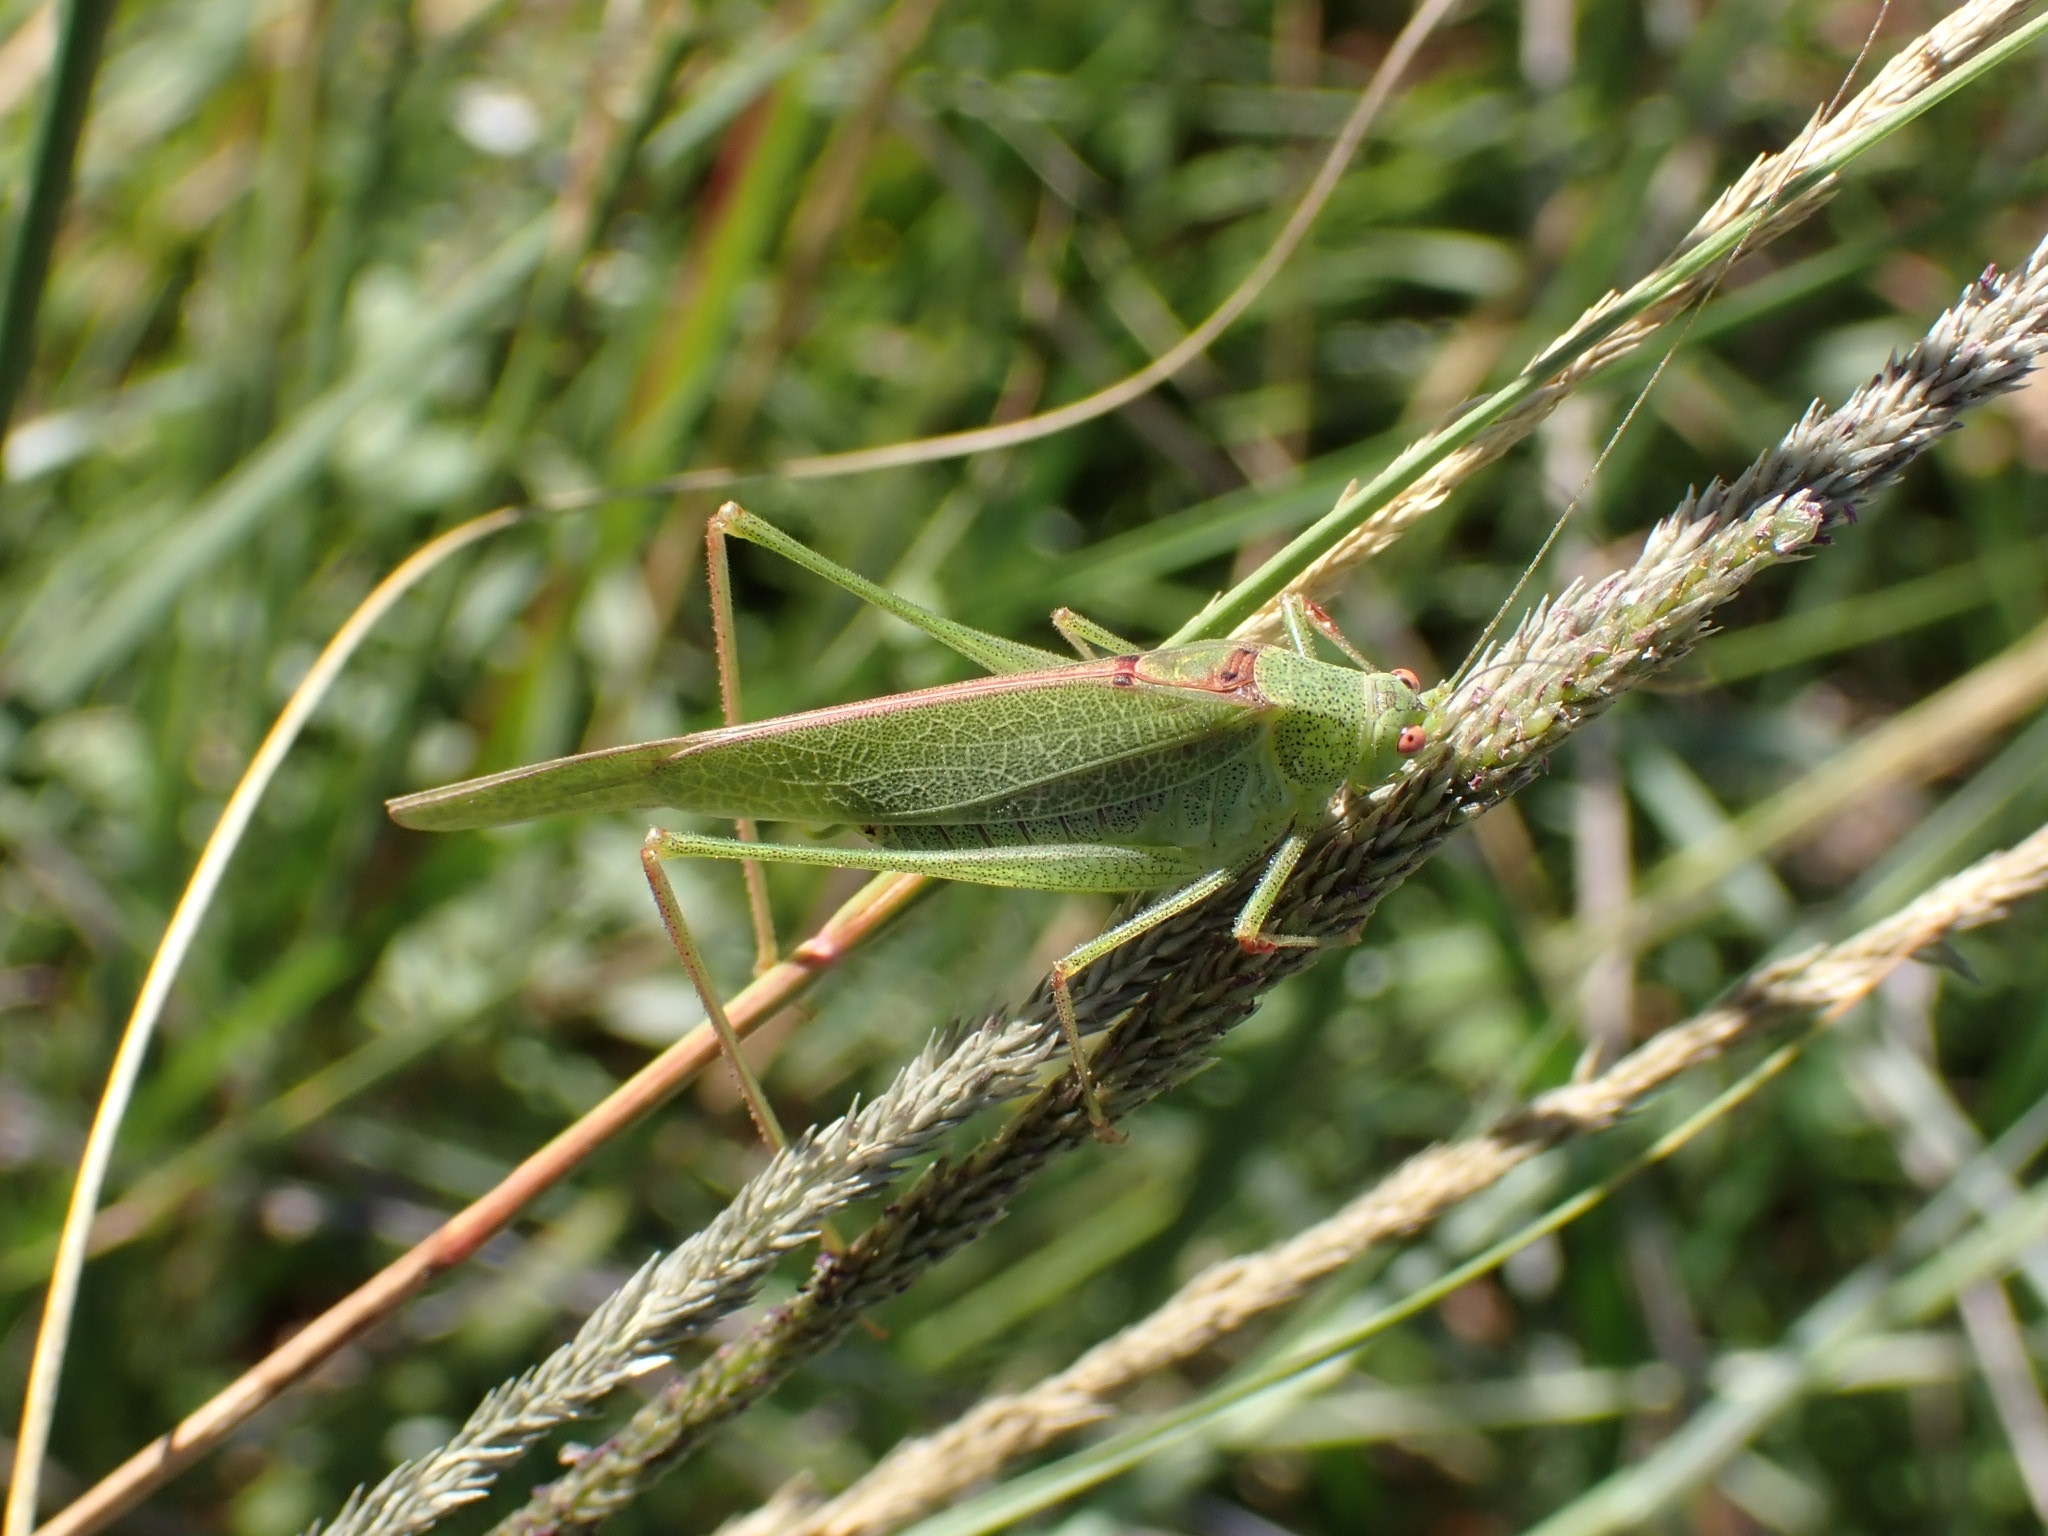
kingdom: Animalia
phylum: Arthropoda
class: Insecta
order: Orthoptera
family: Tettigoniidae
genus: Phaneroptera
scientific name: Phaneroptera nana
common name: Southern sickle bush-cricket
